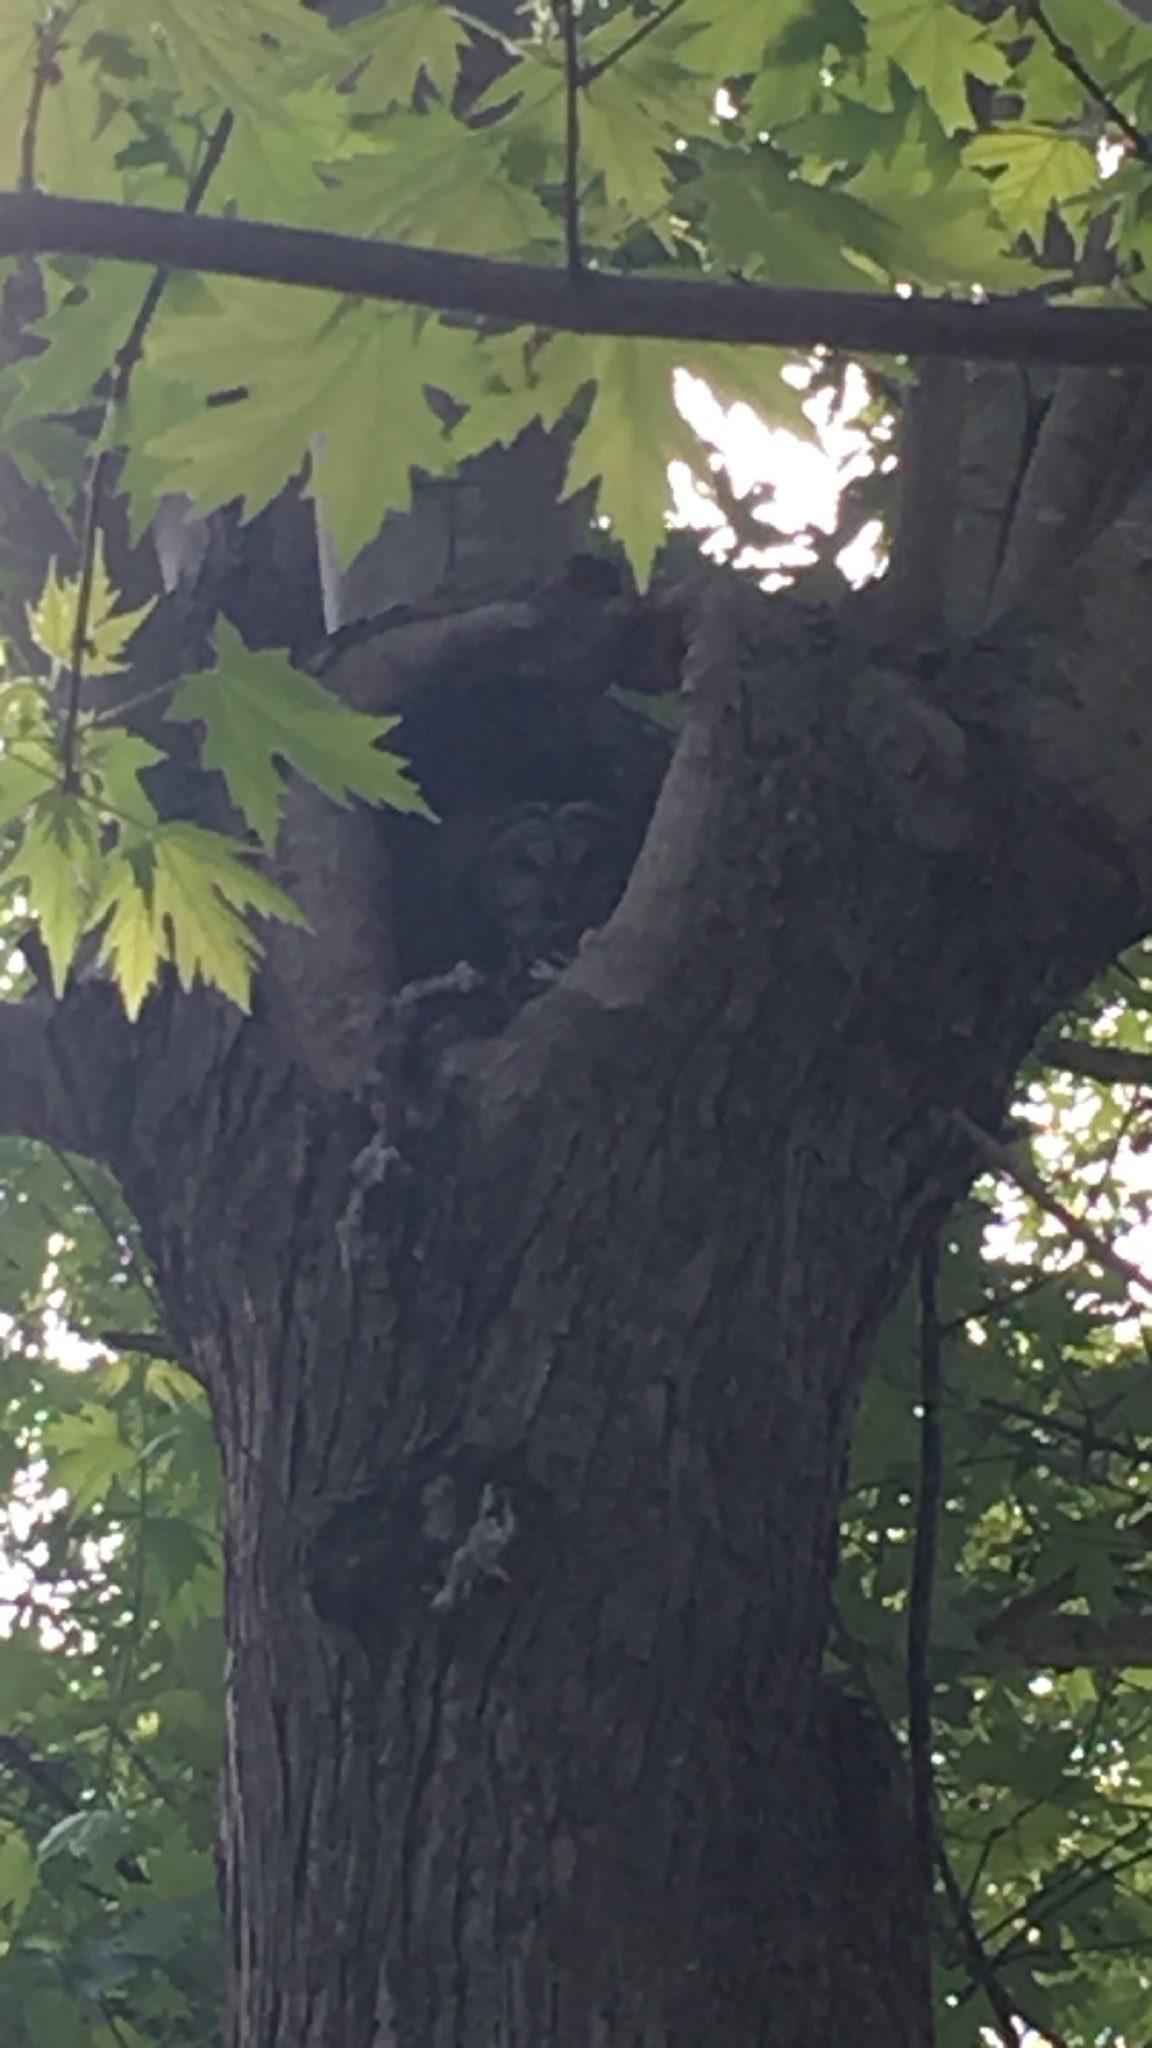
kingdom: Animalia
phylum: Chordata
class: Aves
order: Strigiformes
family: Strigidae
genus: Strix
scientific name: Strix varia
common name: Barred owl
